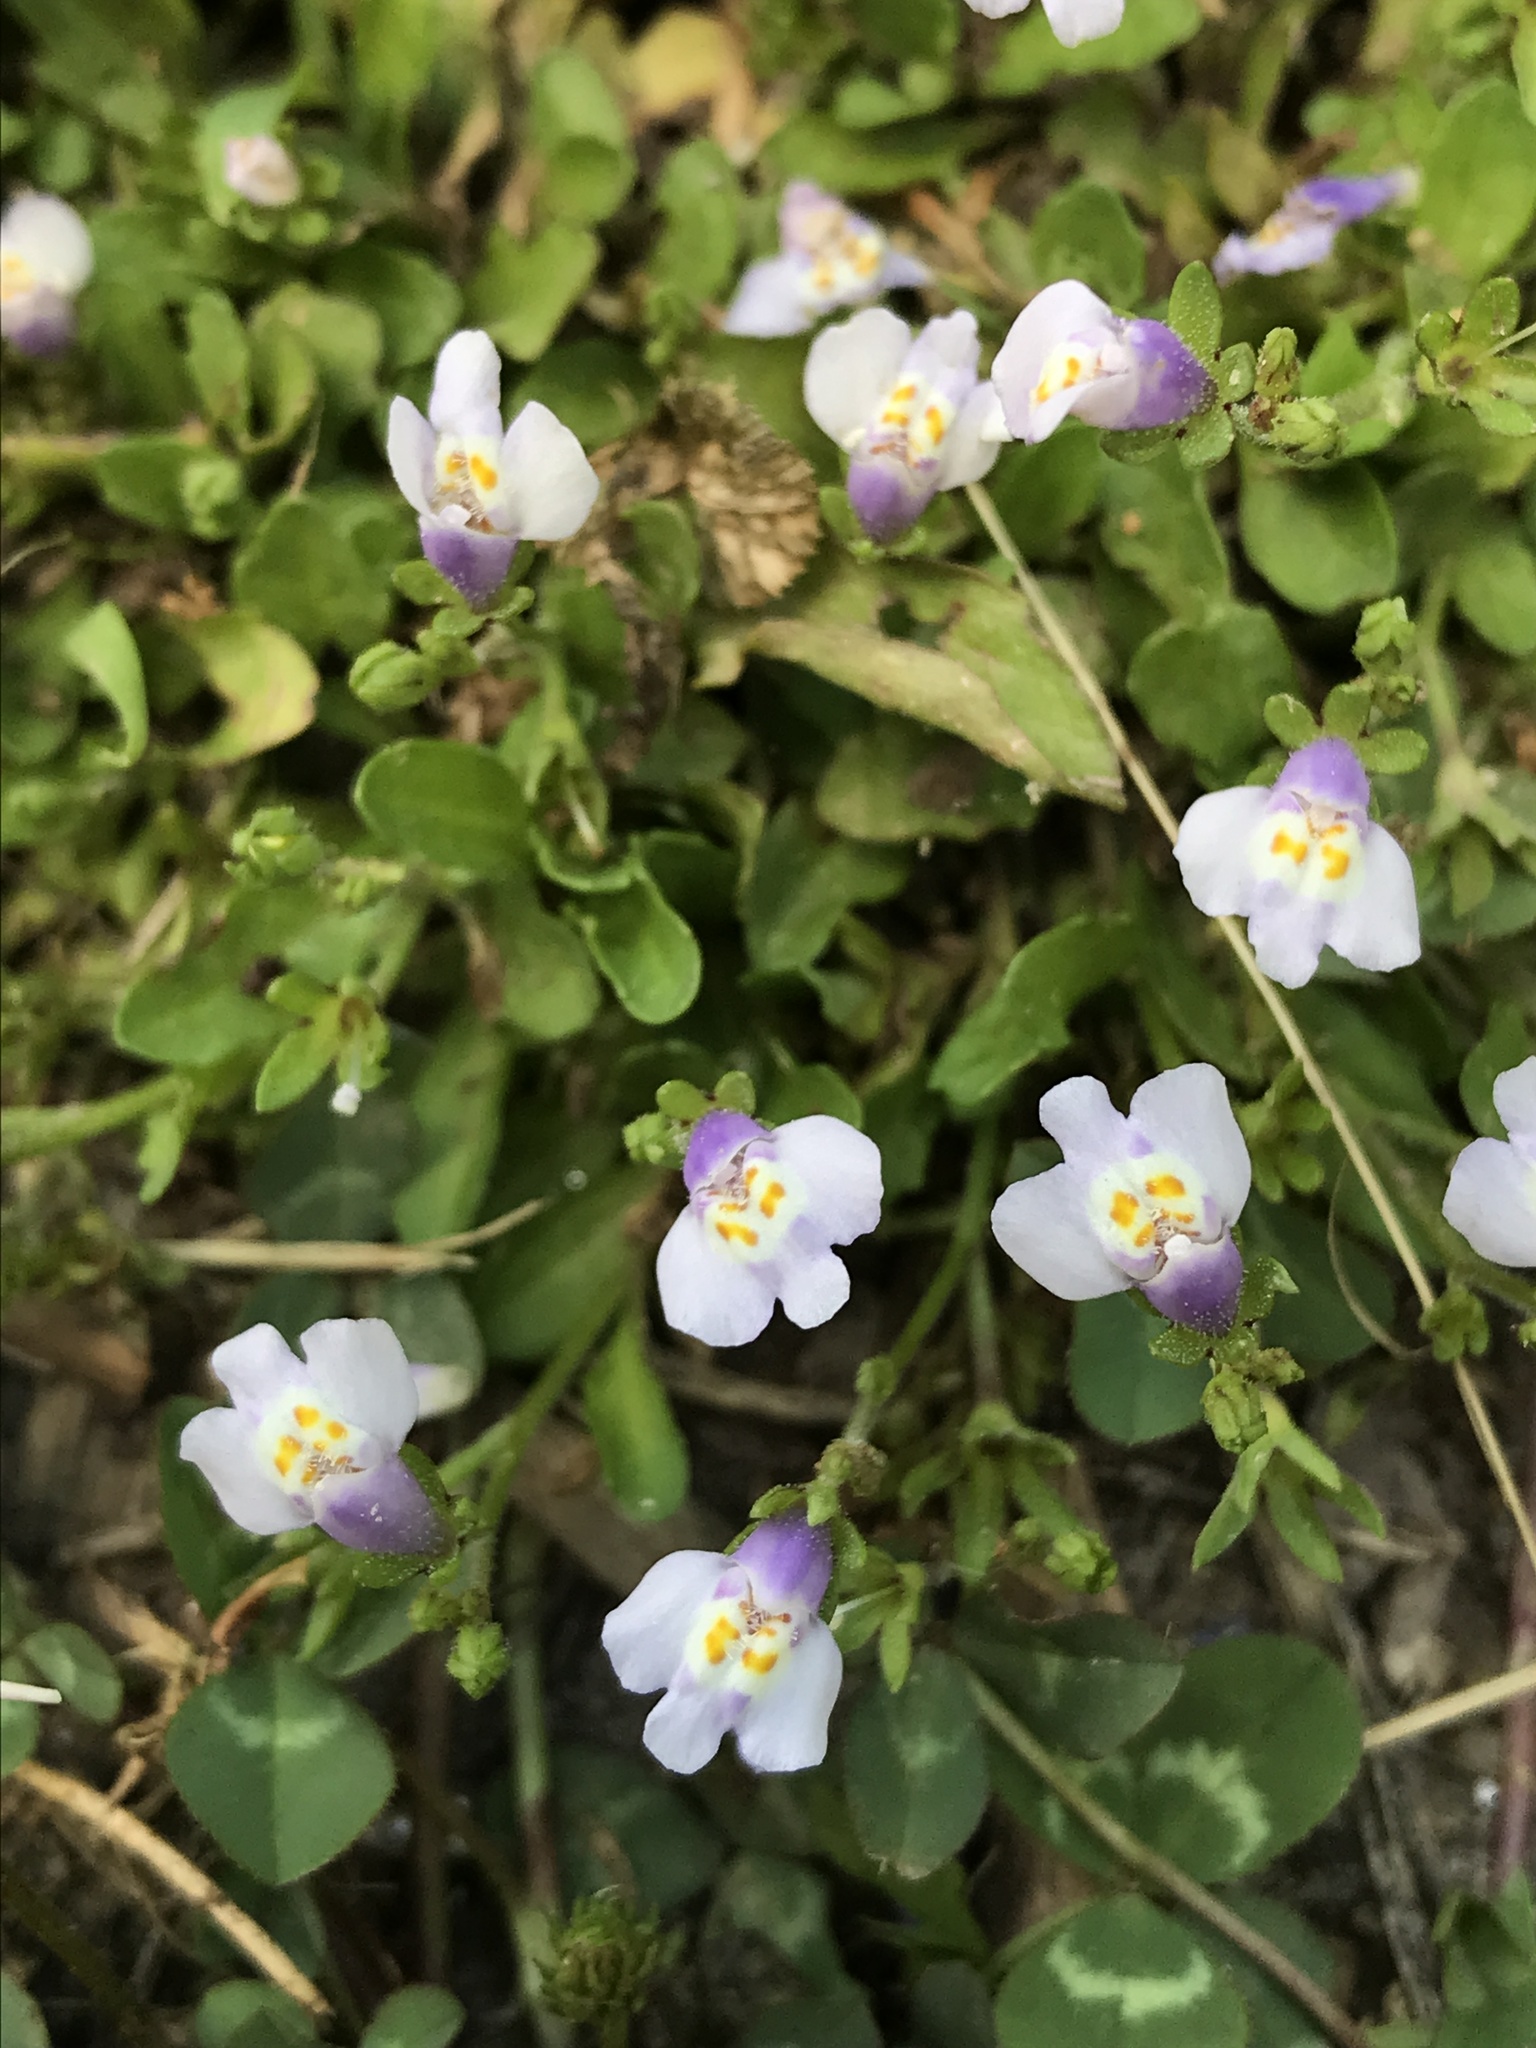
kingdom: Plantae
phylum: Tracheophyta
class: Magnoliopsida
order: Lamiales
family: Mazaceae
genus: Mazus
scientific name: Mazus pumilus
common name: Japanese mazus
